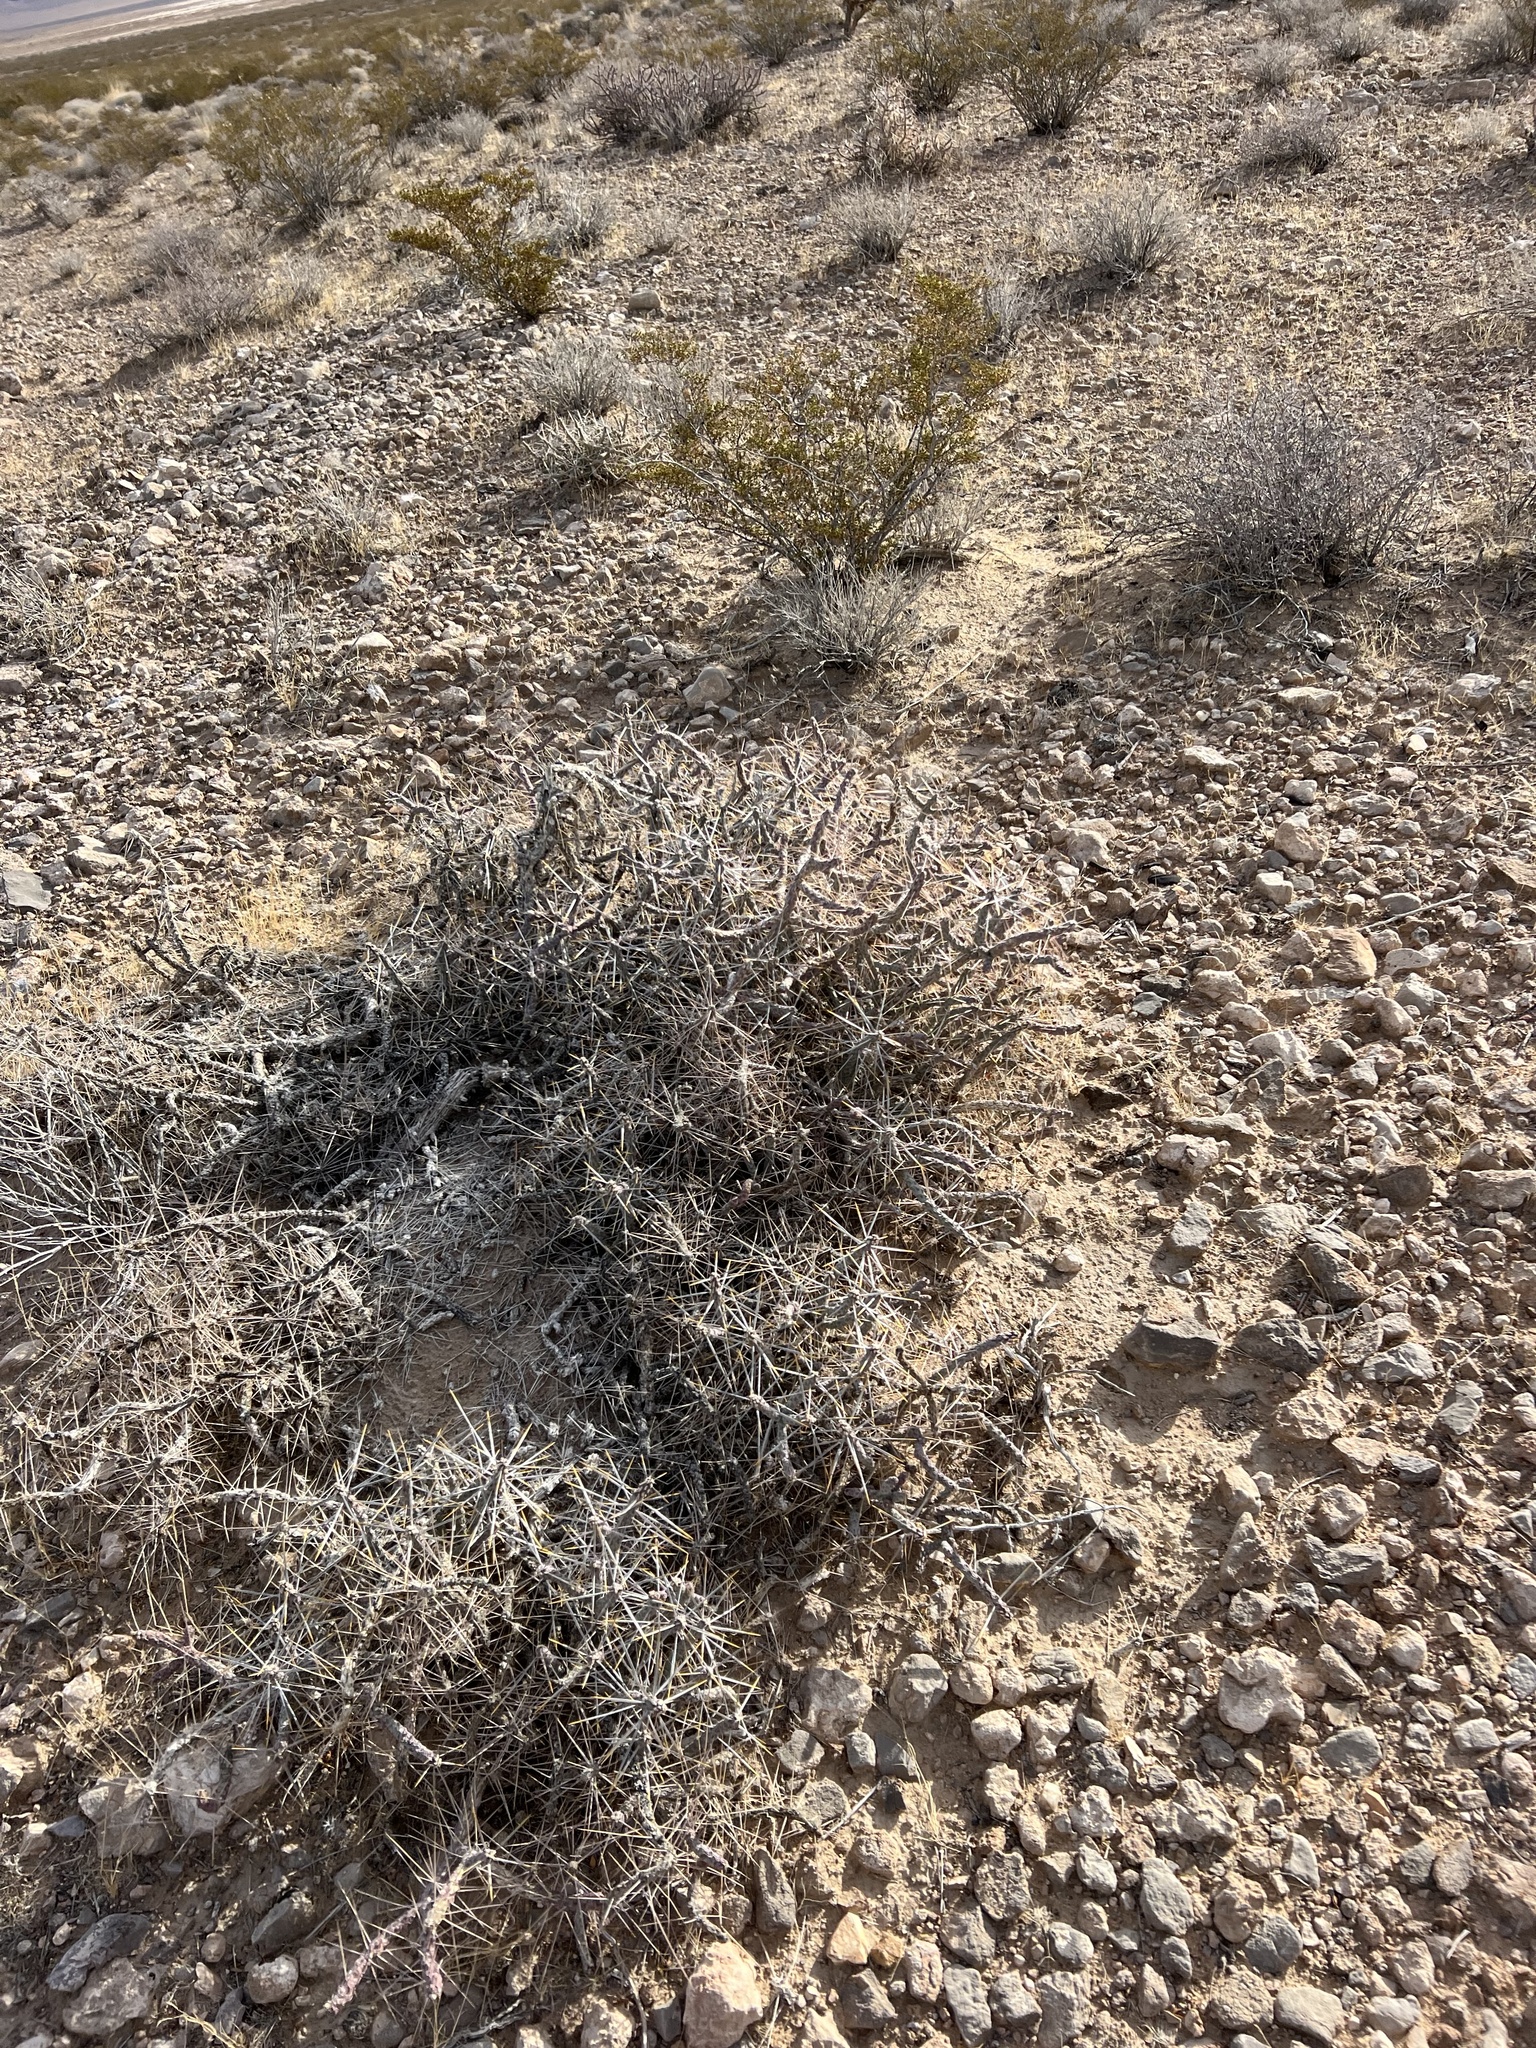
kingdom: Plantae
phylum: Tracheophyta
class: Magnoliopsida
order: Caryophyllales
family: Cactaceae
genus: Cylindropuntia
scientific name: Cylindropuntia ramosissima
